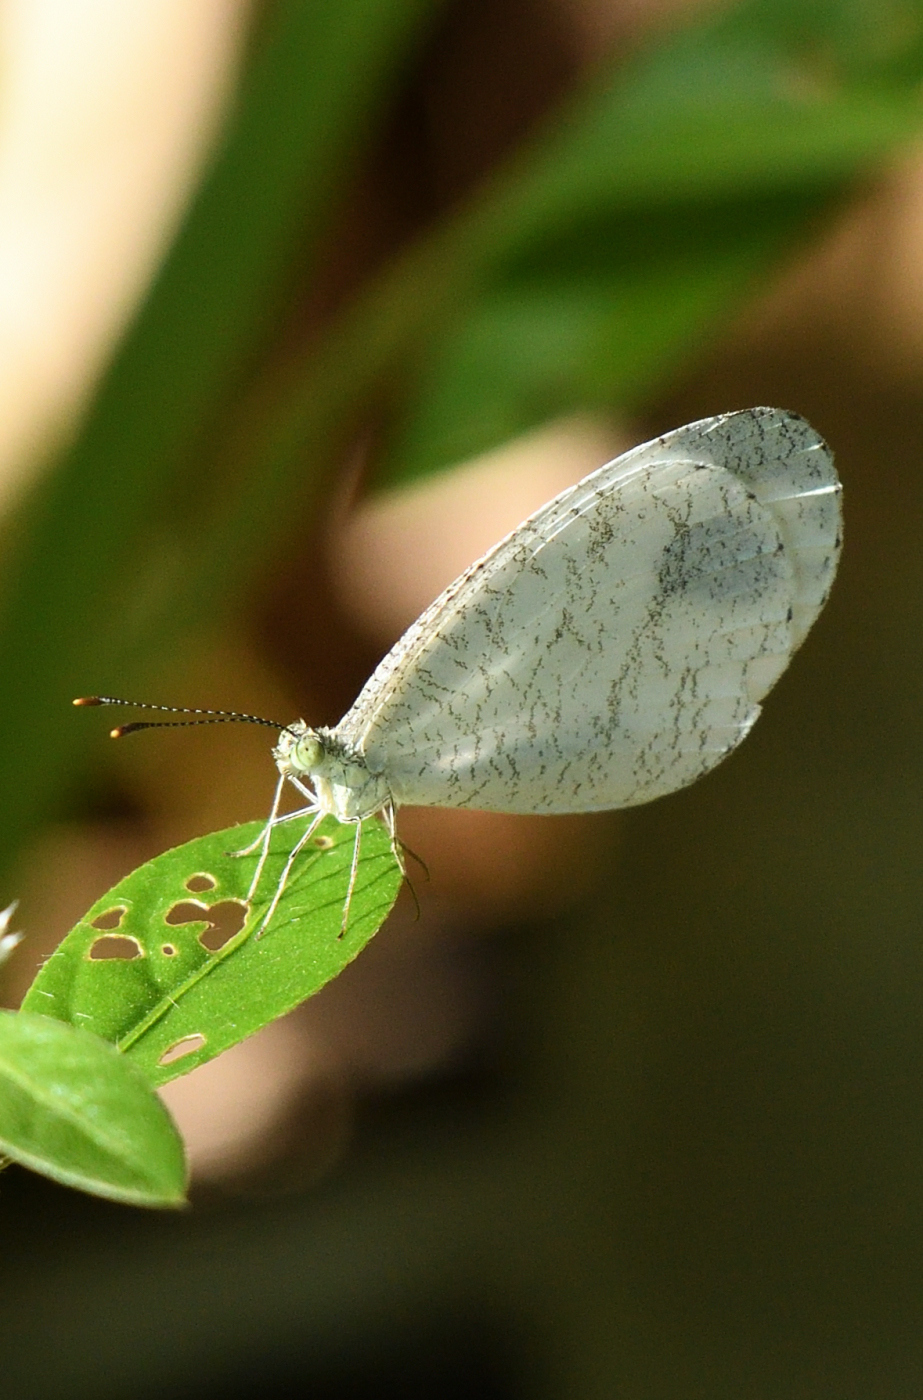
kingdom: Animalia
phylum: Arthropoda
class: Insecta
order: Lepidoptera
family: Pieridae
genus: Leptosia
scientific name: Leptosia nina
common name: Psyche
